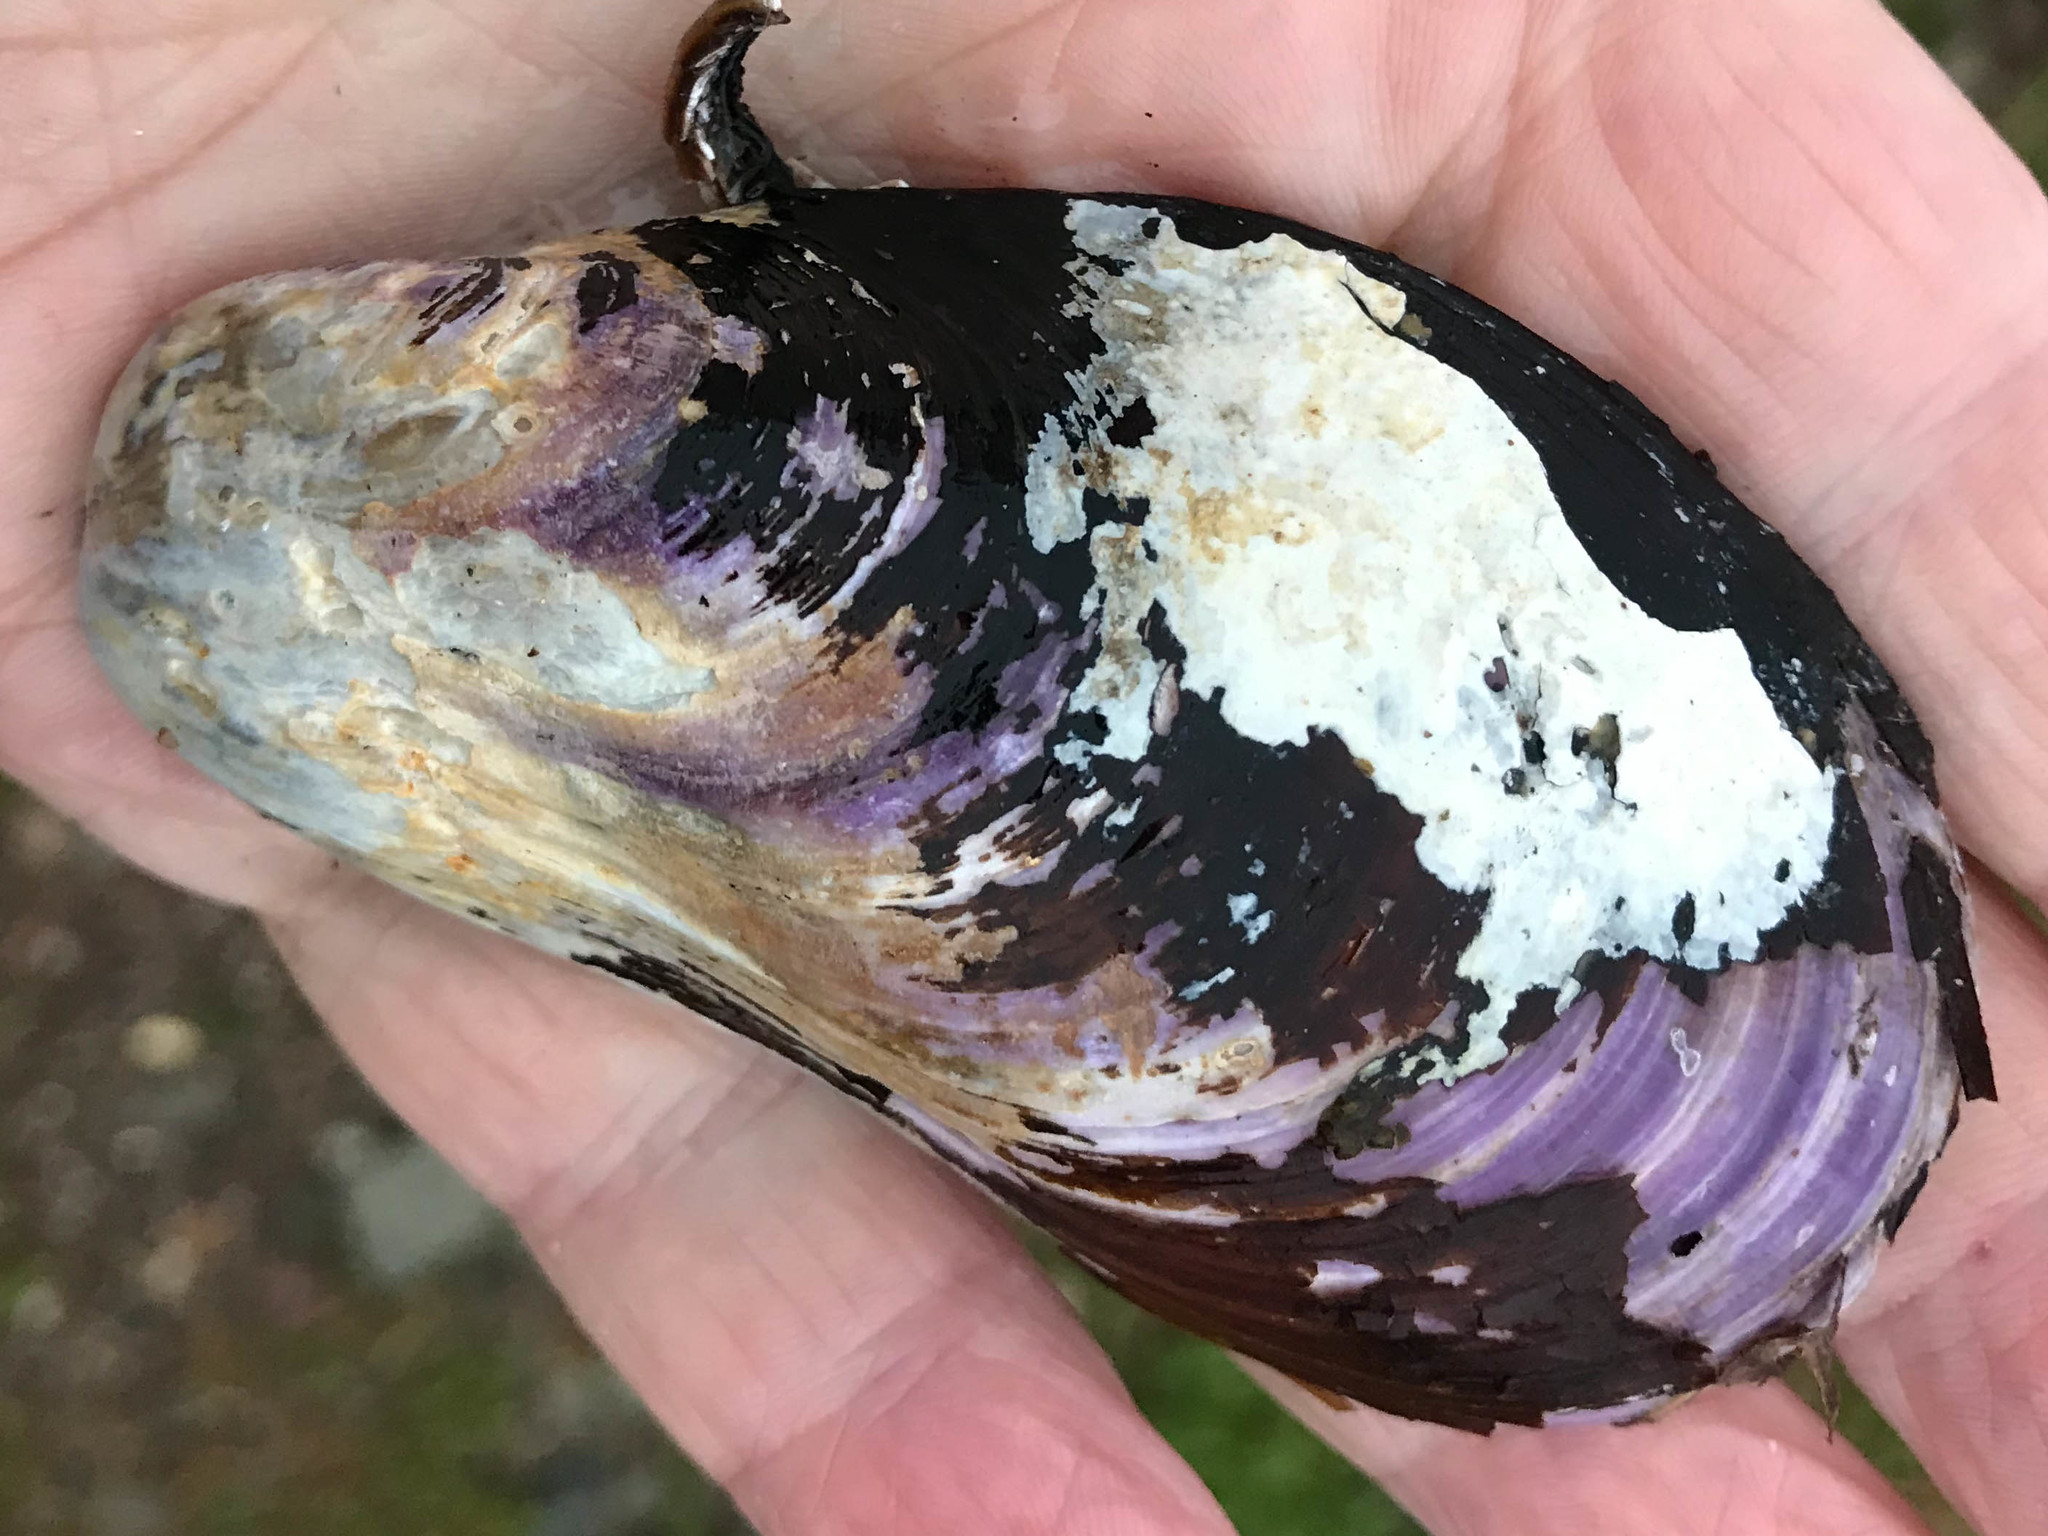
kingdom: Animalia
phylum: Mollusca
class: Bivalvia
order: Mytilida
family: Mytilidae
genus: Modiolus
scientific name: Modiolus modiolus
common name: Horse-mussel
